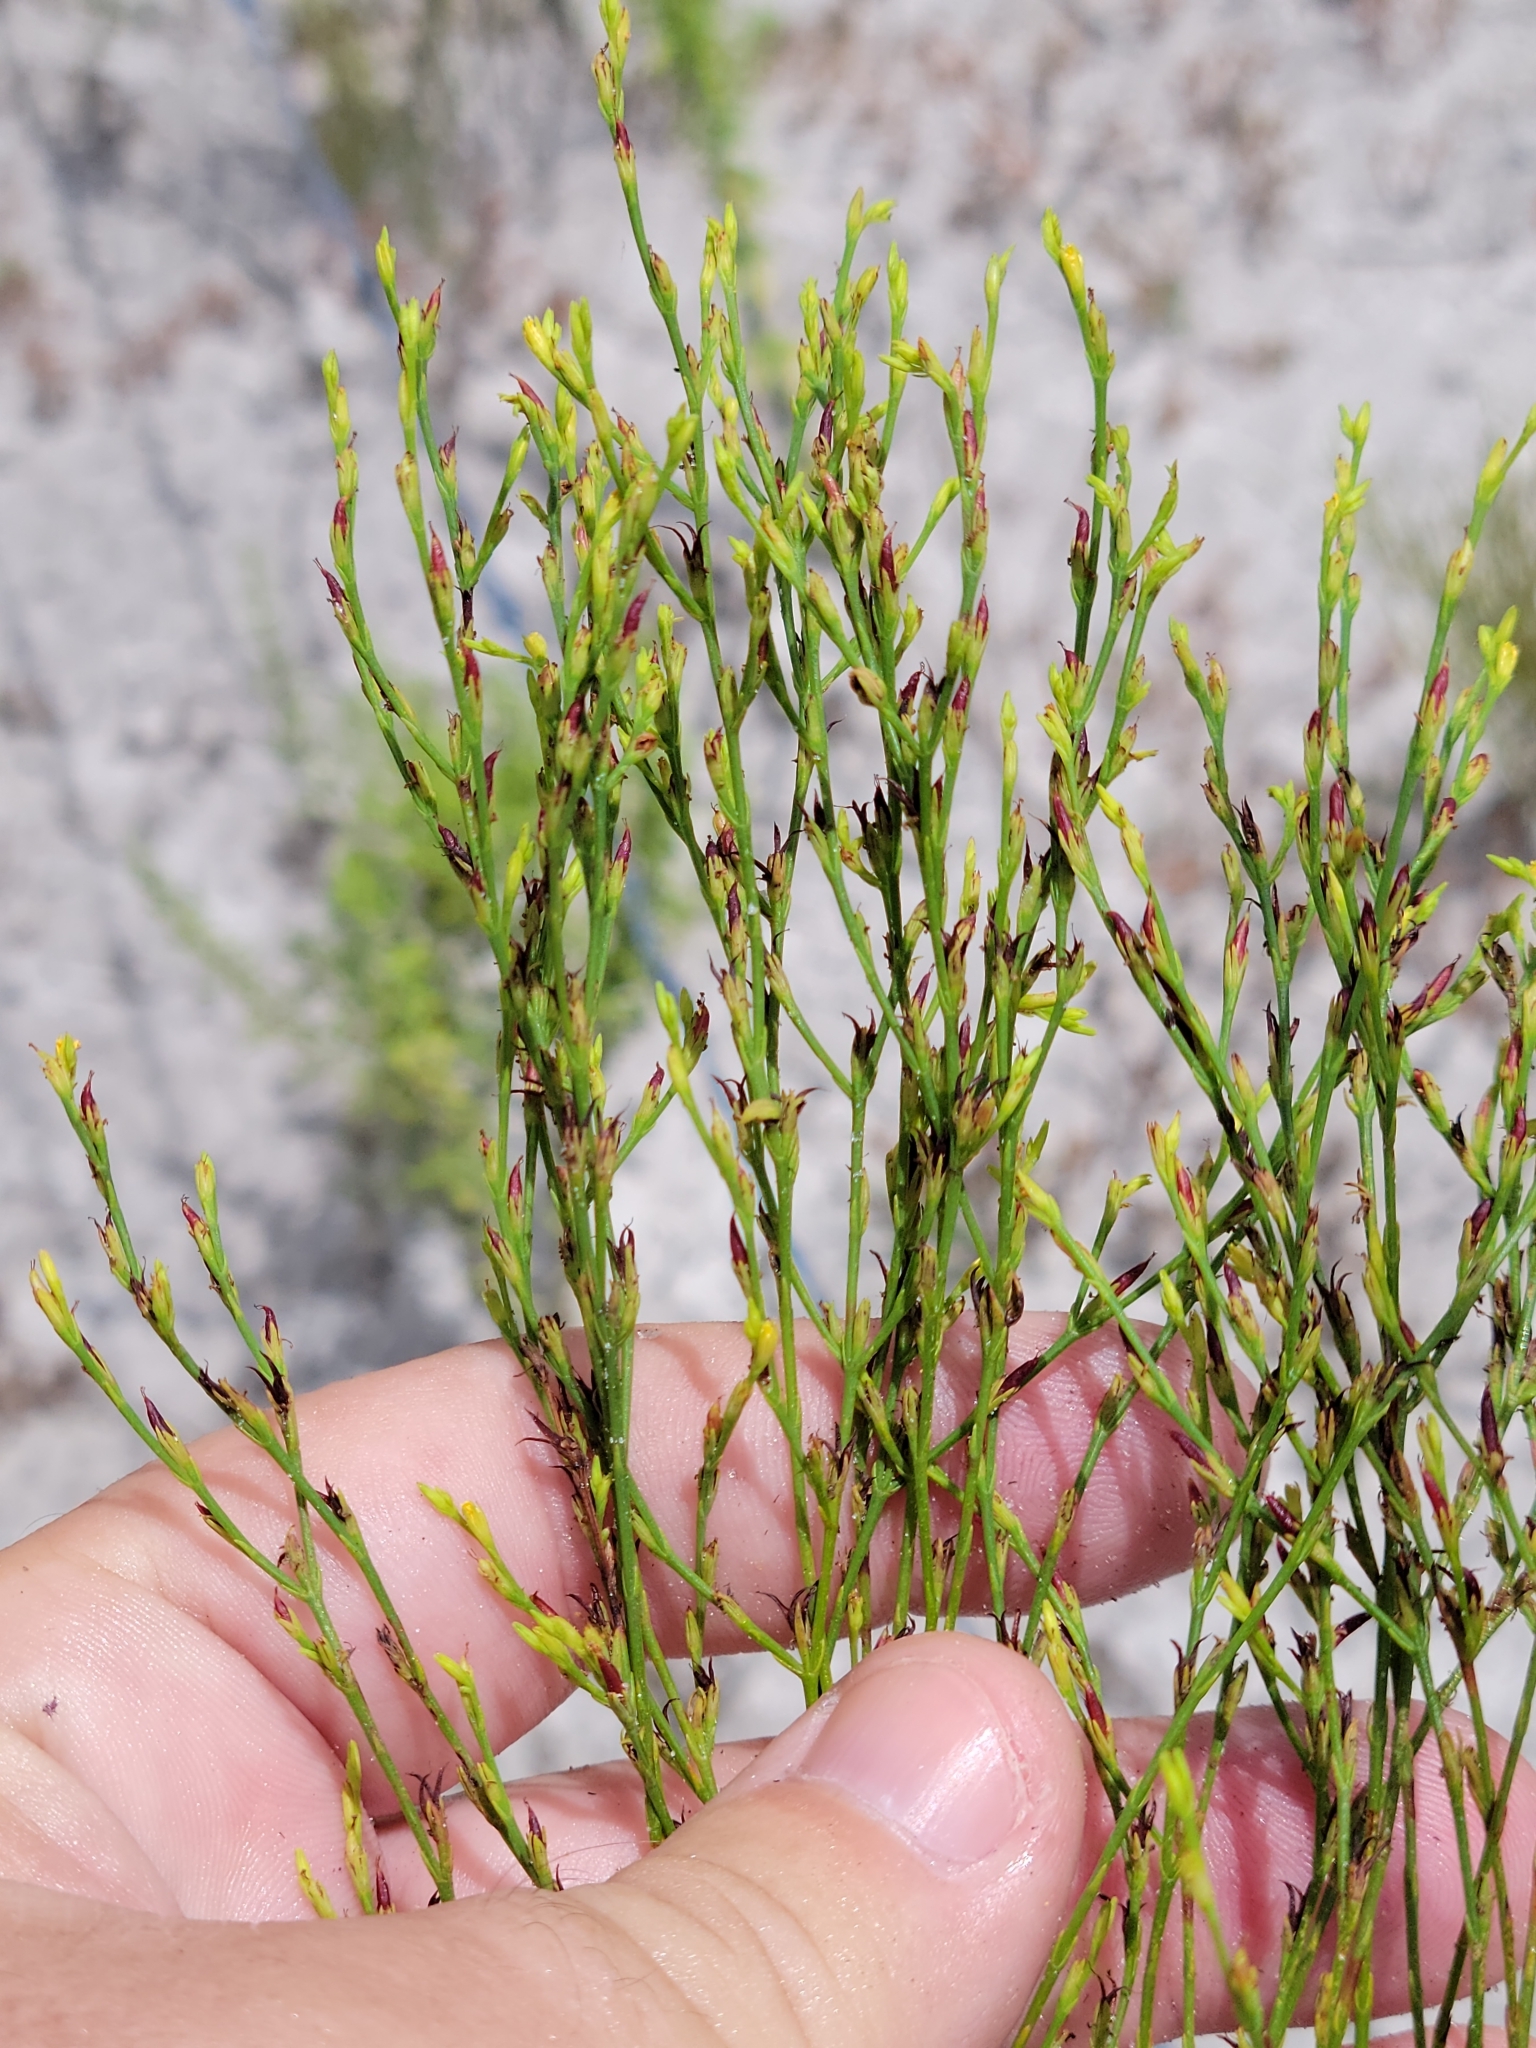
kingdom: Plantae
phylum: Tracheophyta
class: Magnoliopsida
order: Malpighiales
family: Hypericaceae
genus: Hypericum
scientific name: Hypericum gentianoides
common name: Gentian-leaved st. john's-wort
